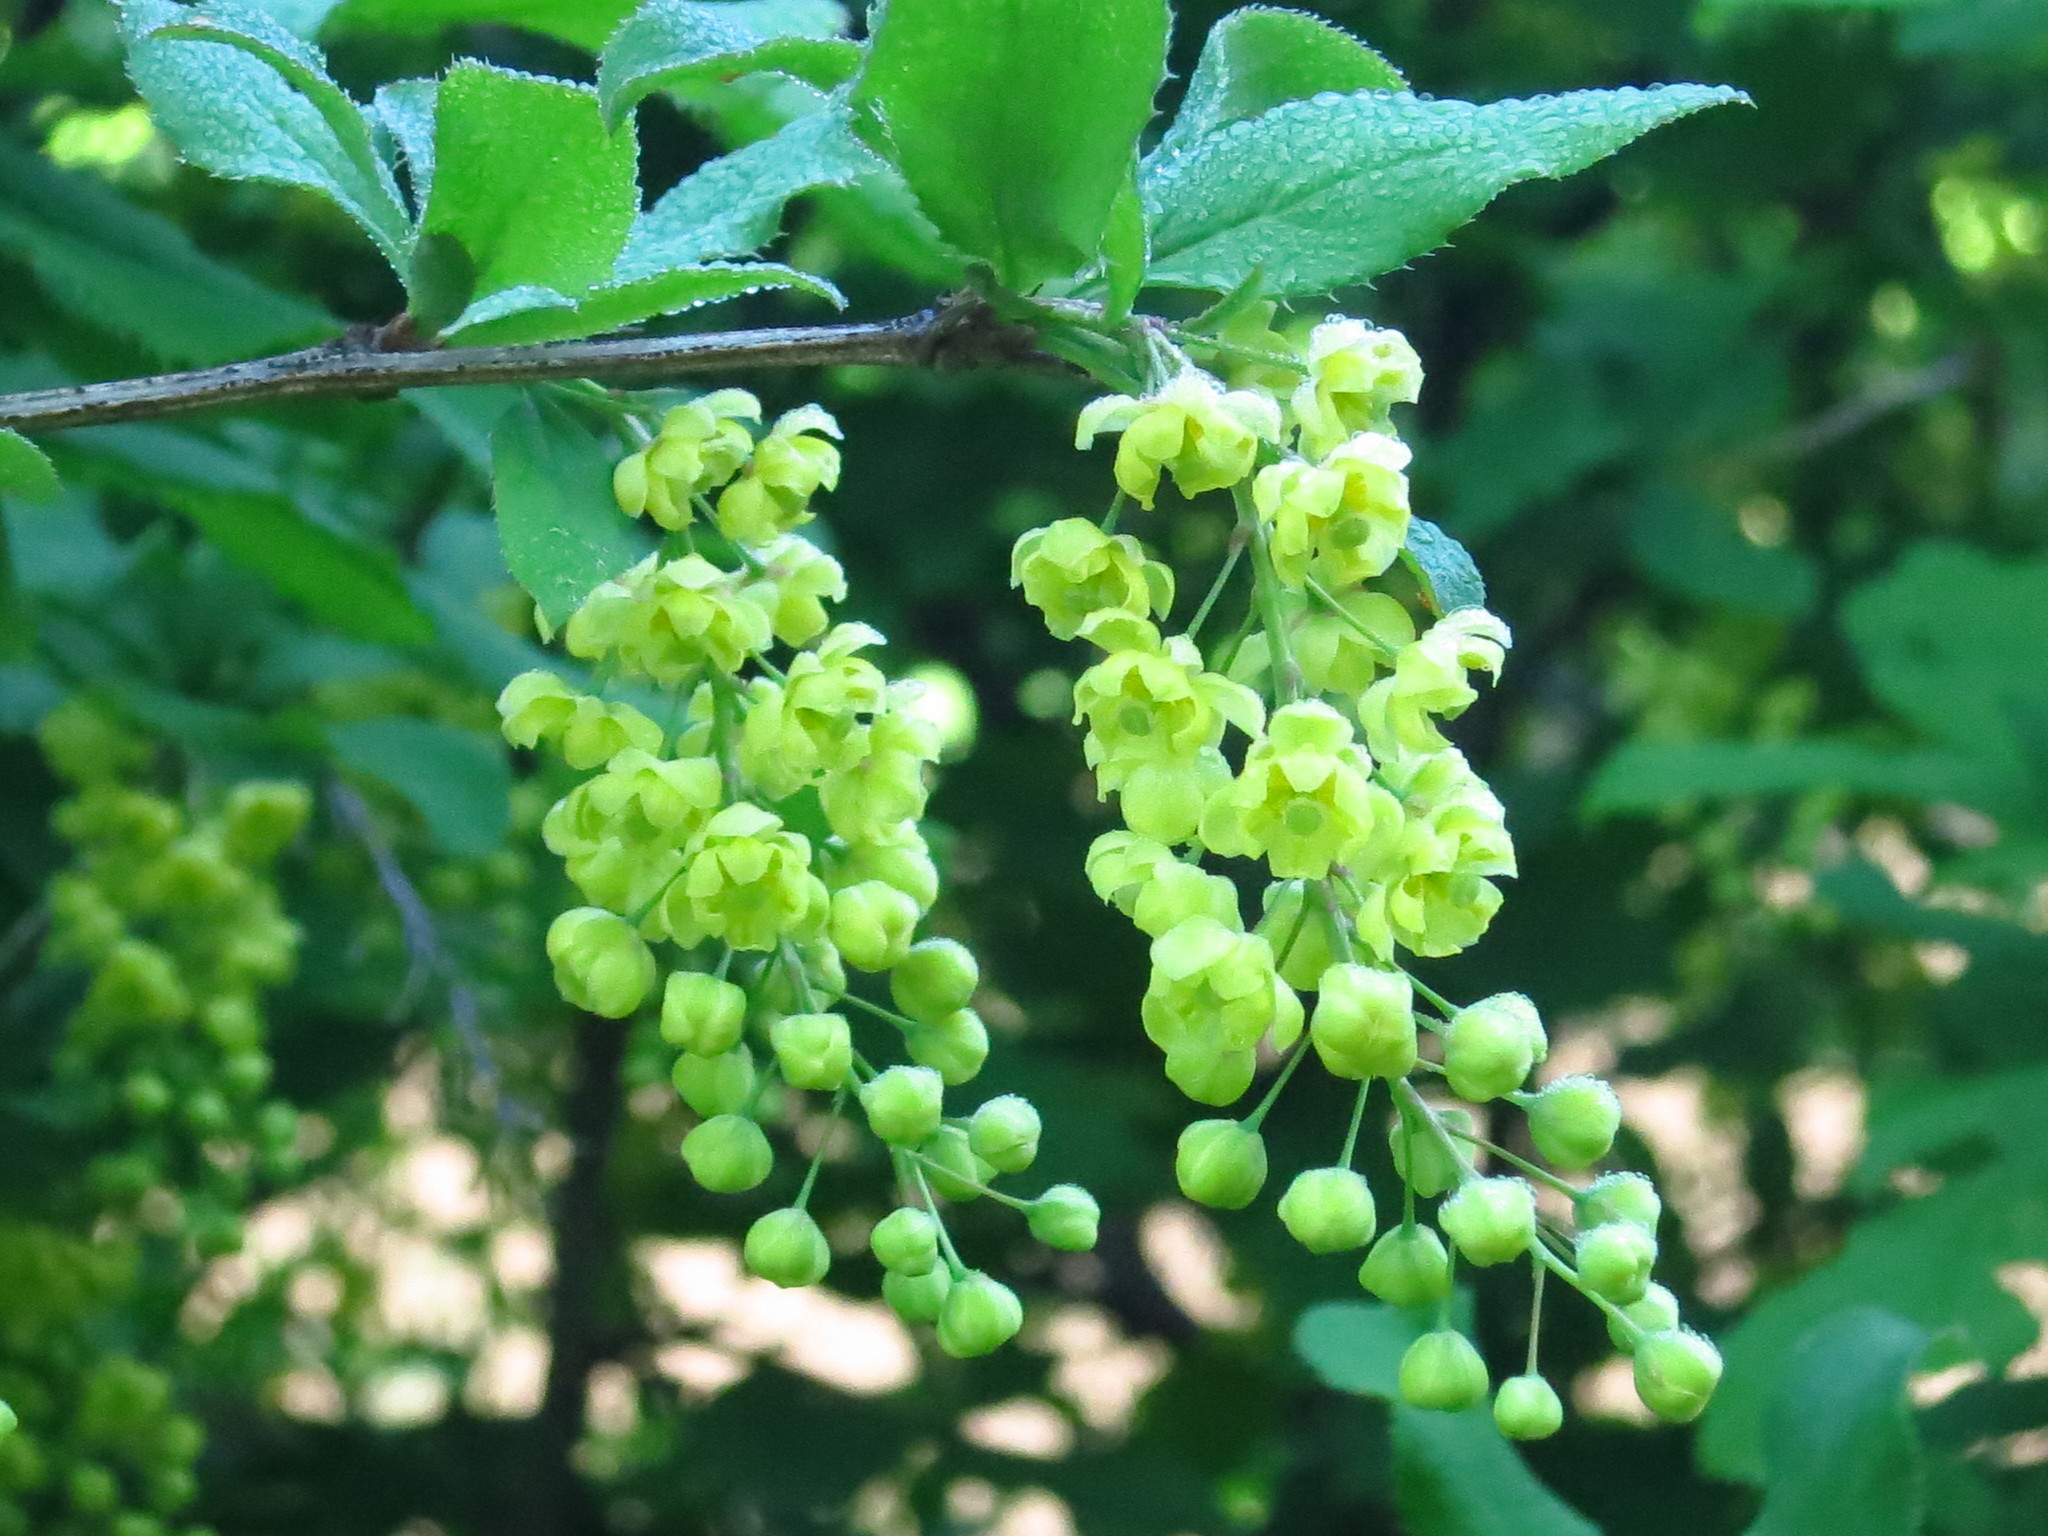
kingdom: Plantae
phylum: Tracheophyta
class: Magnoliopsida
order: Ranunculales
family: Berberidaceae
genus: Berberis
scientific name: Berberis amurensis
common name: Amur barberry
